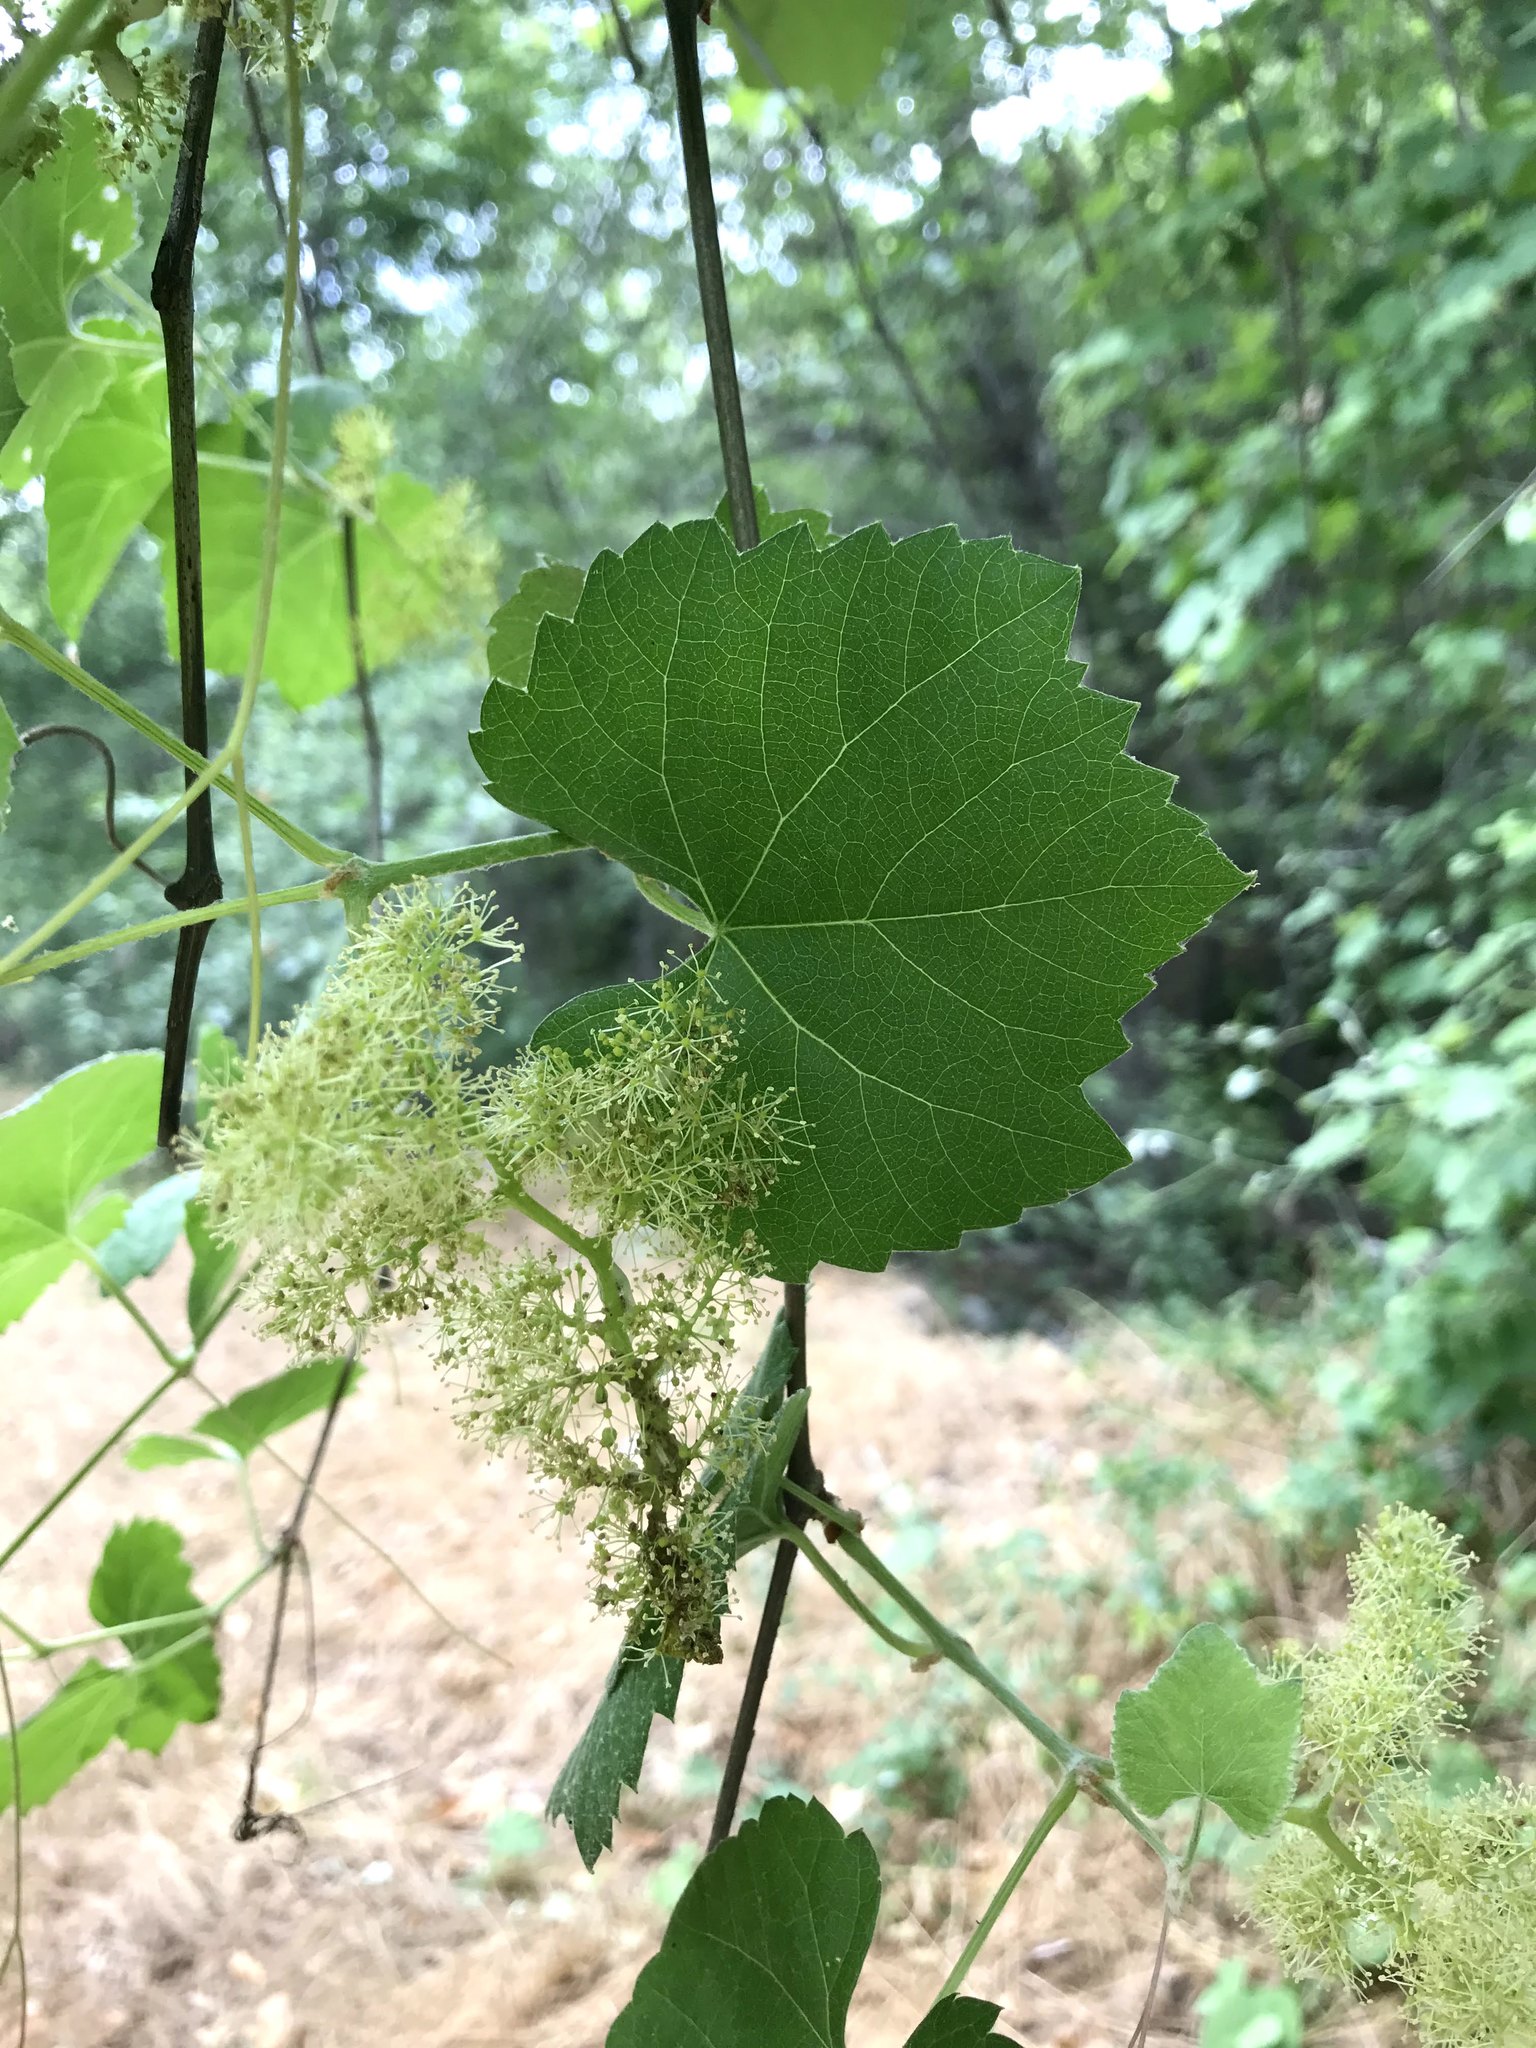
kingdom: Plantae
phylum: Tracheophyta
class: Magnoliopsida
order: Vitales
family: Vitaceae
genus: Vitis
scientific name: Vitis girdiana
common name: Desert wild grape
